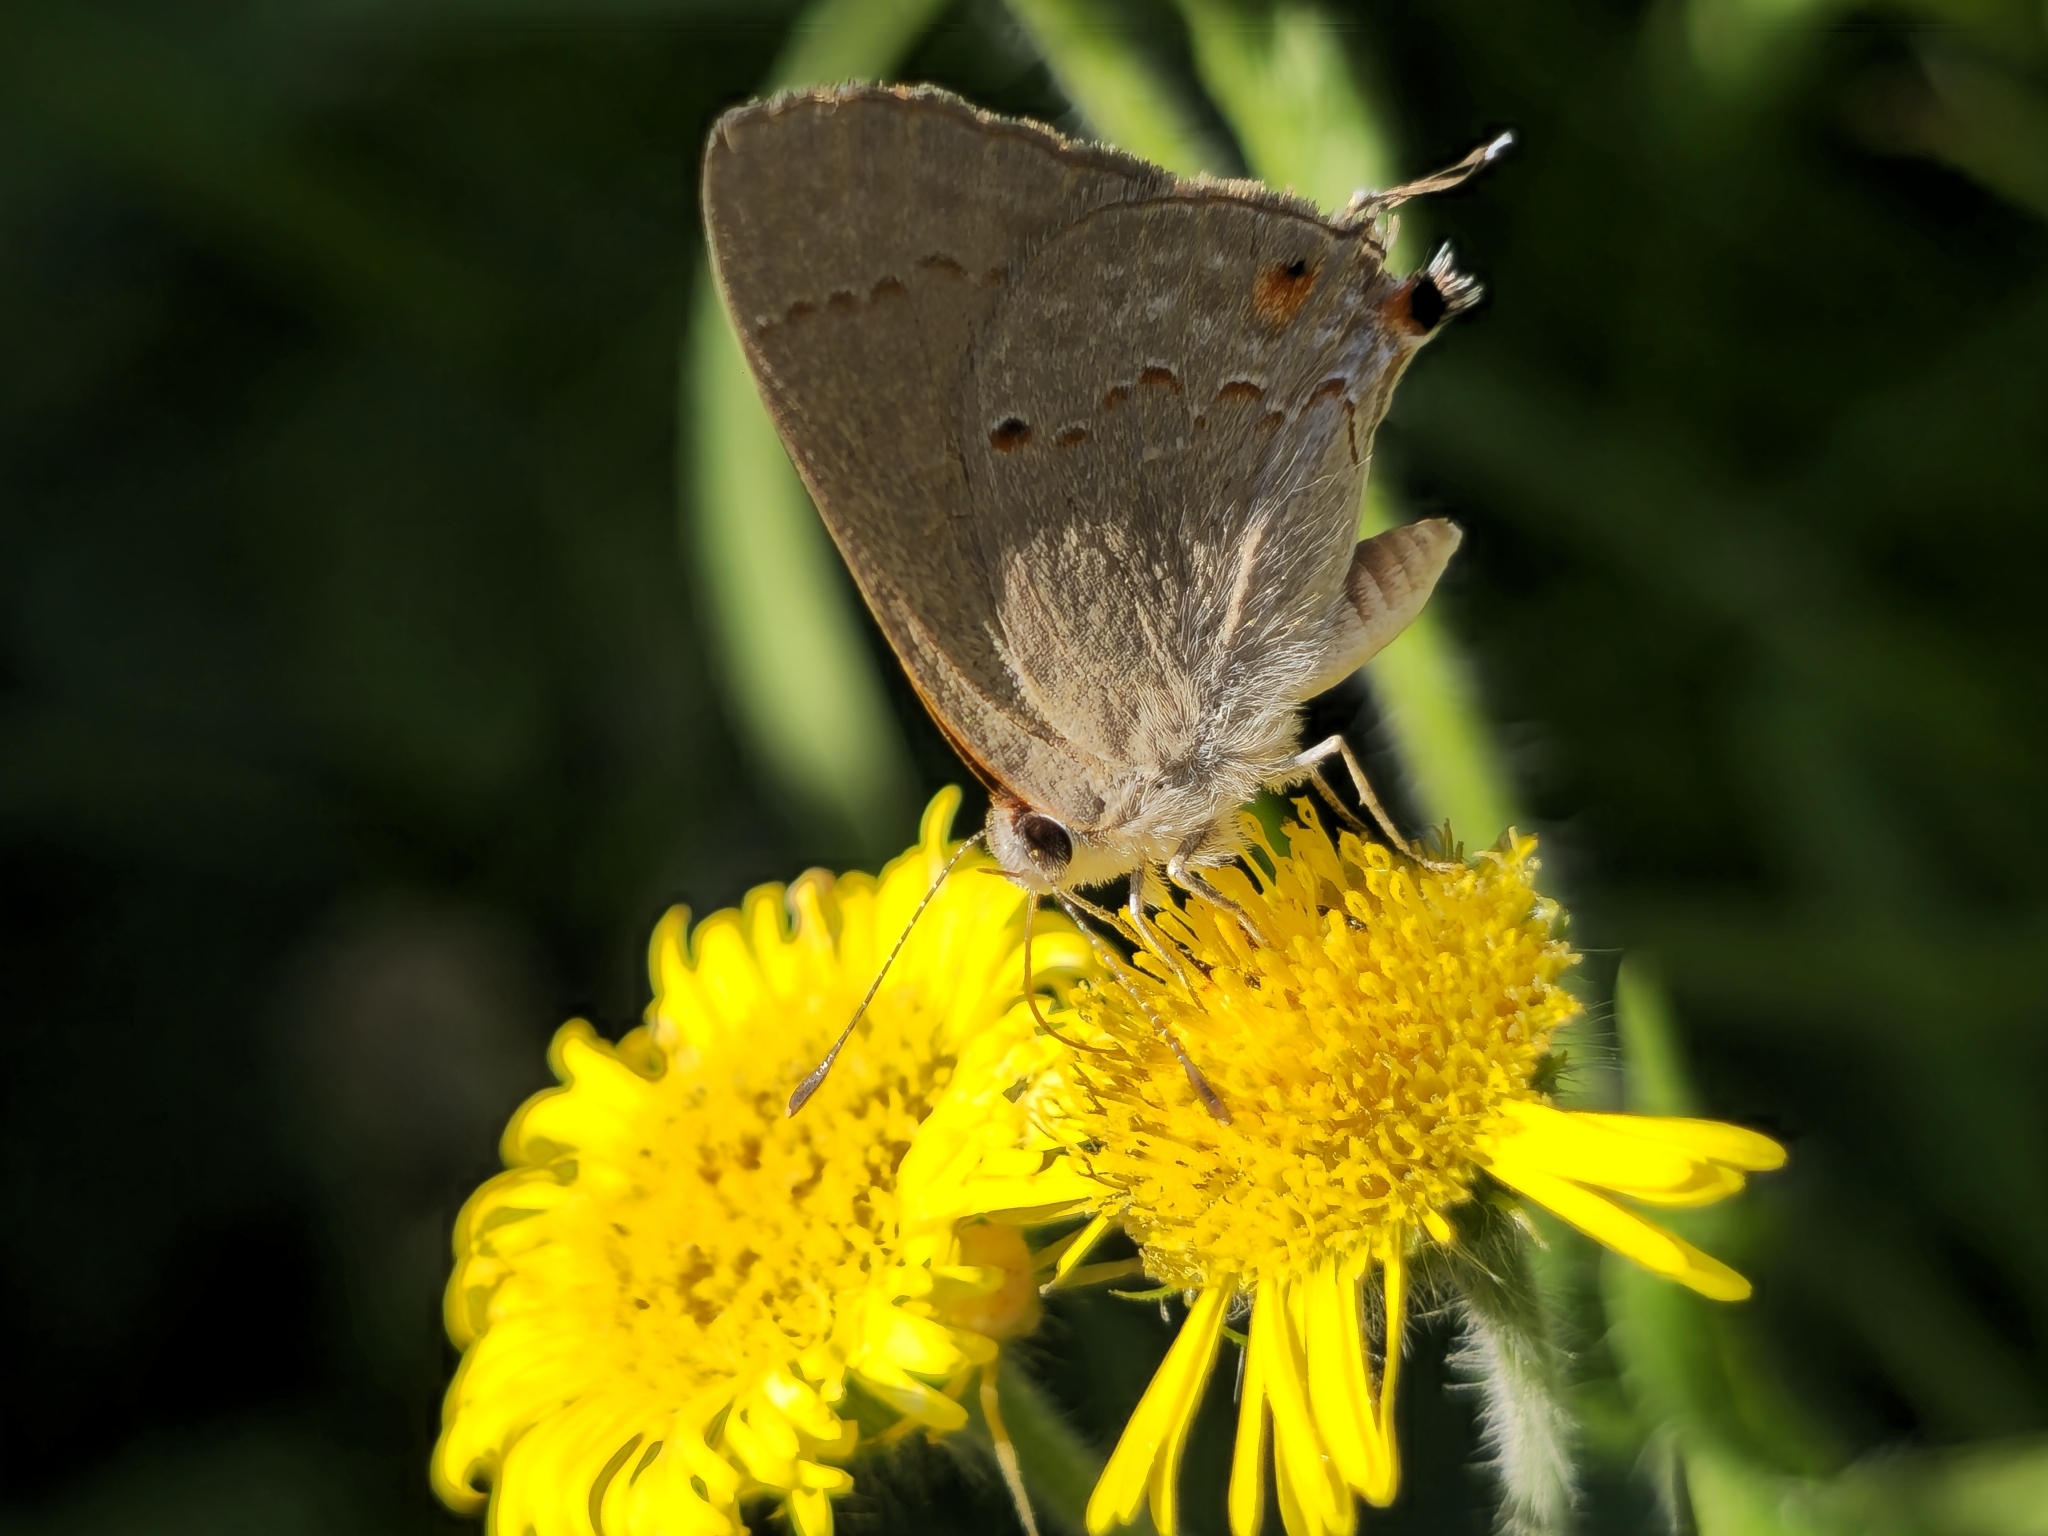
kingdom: Animalia
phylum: Arthropoda
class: Insecta
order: Lepidoptera
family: Lycaenidae
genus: Thecla
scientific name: Thecla rufofusca
